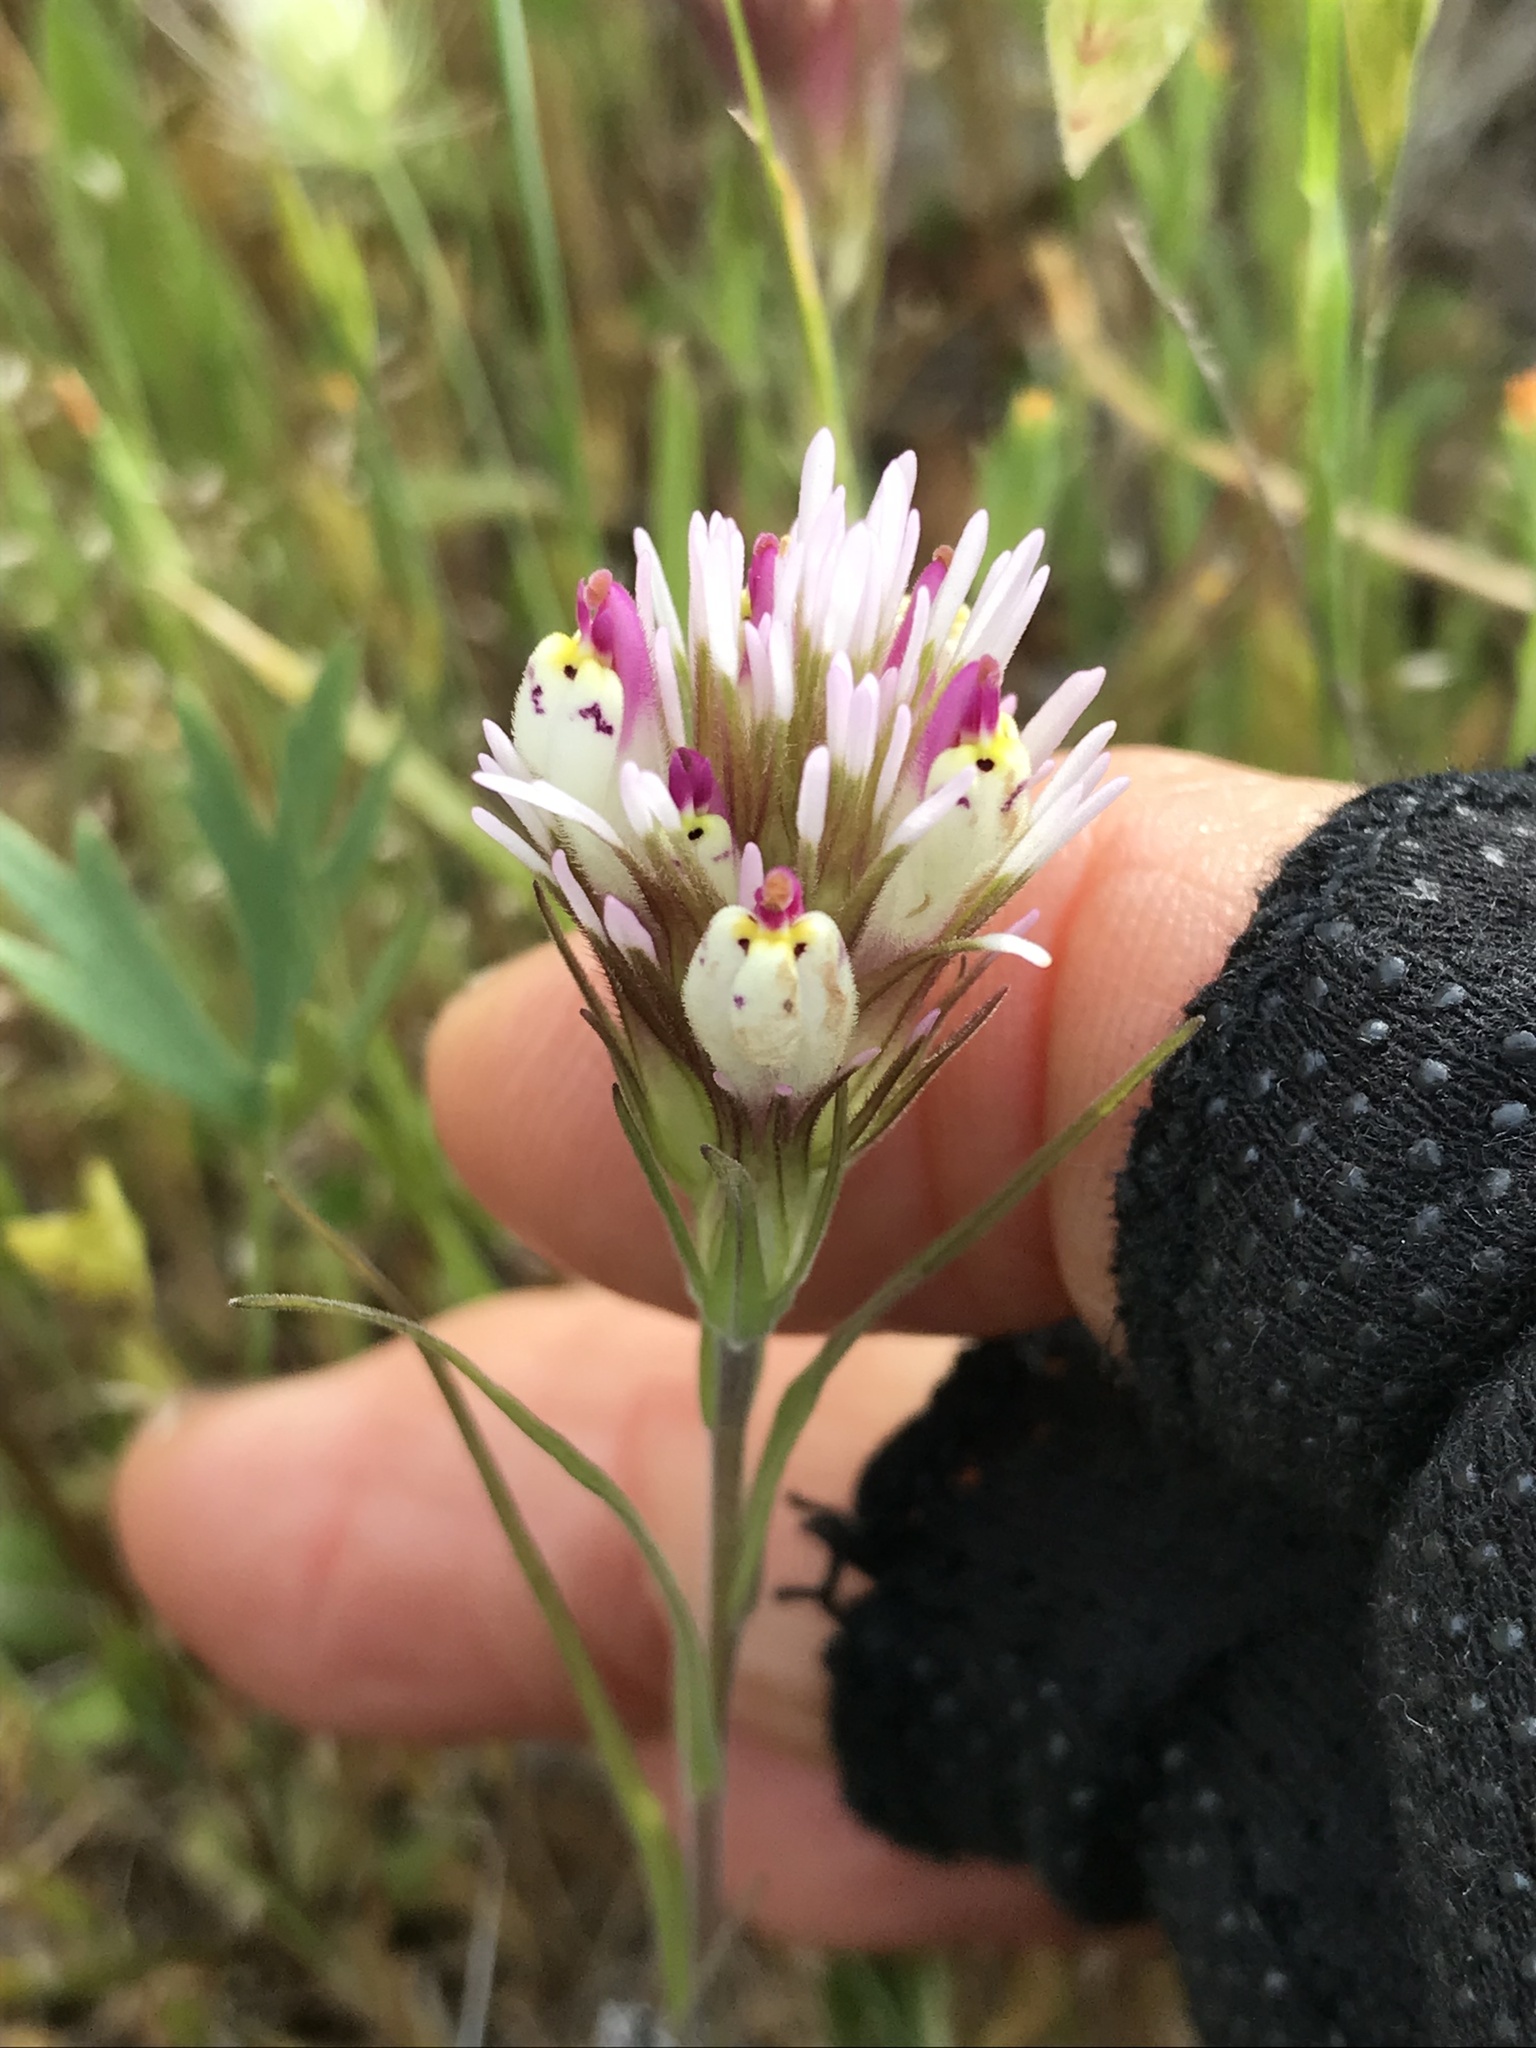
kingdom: Plantae
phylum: Tracheophyta
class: Magnoliopsida
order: Lamiales
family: Orobanchaceae
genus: Castilleja
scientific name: Castilleja densiflora
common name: Dense-flower indian paintbrush
